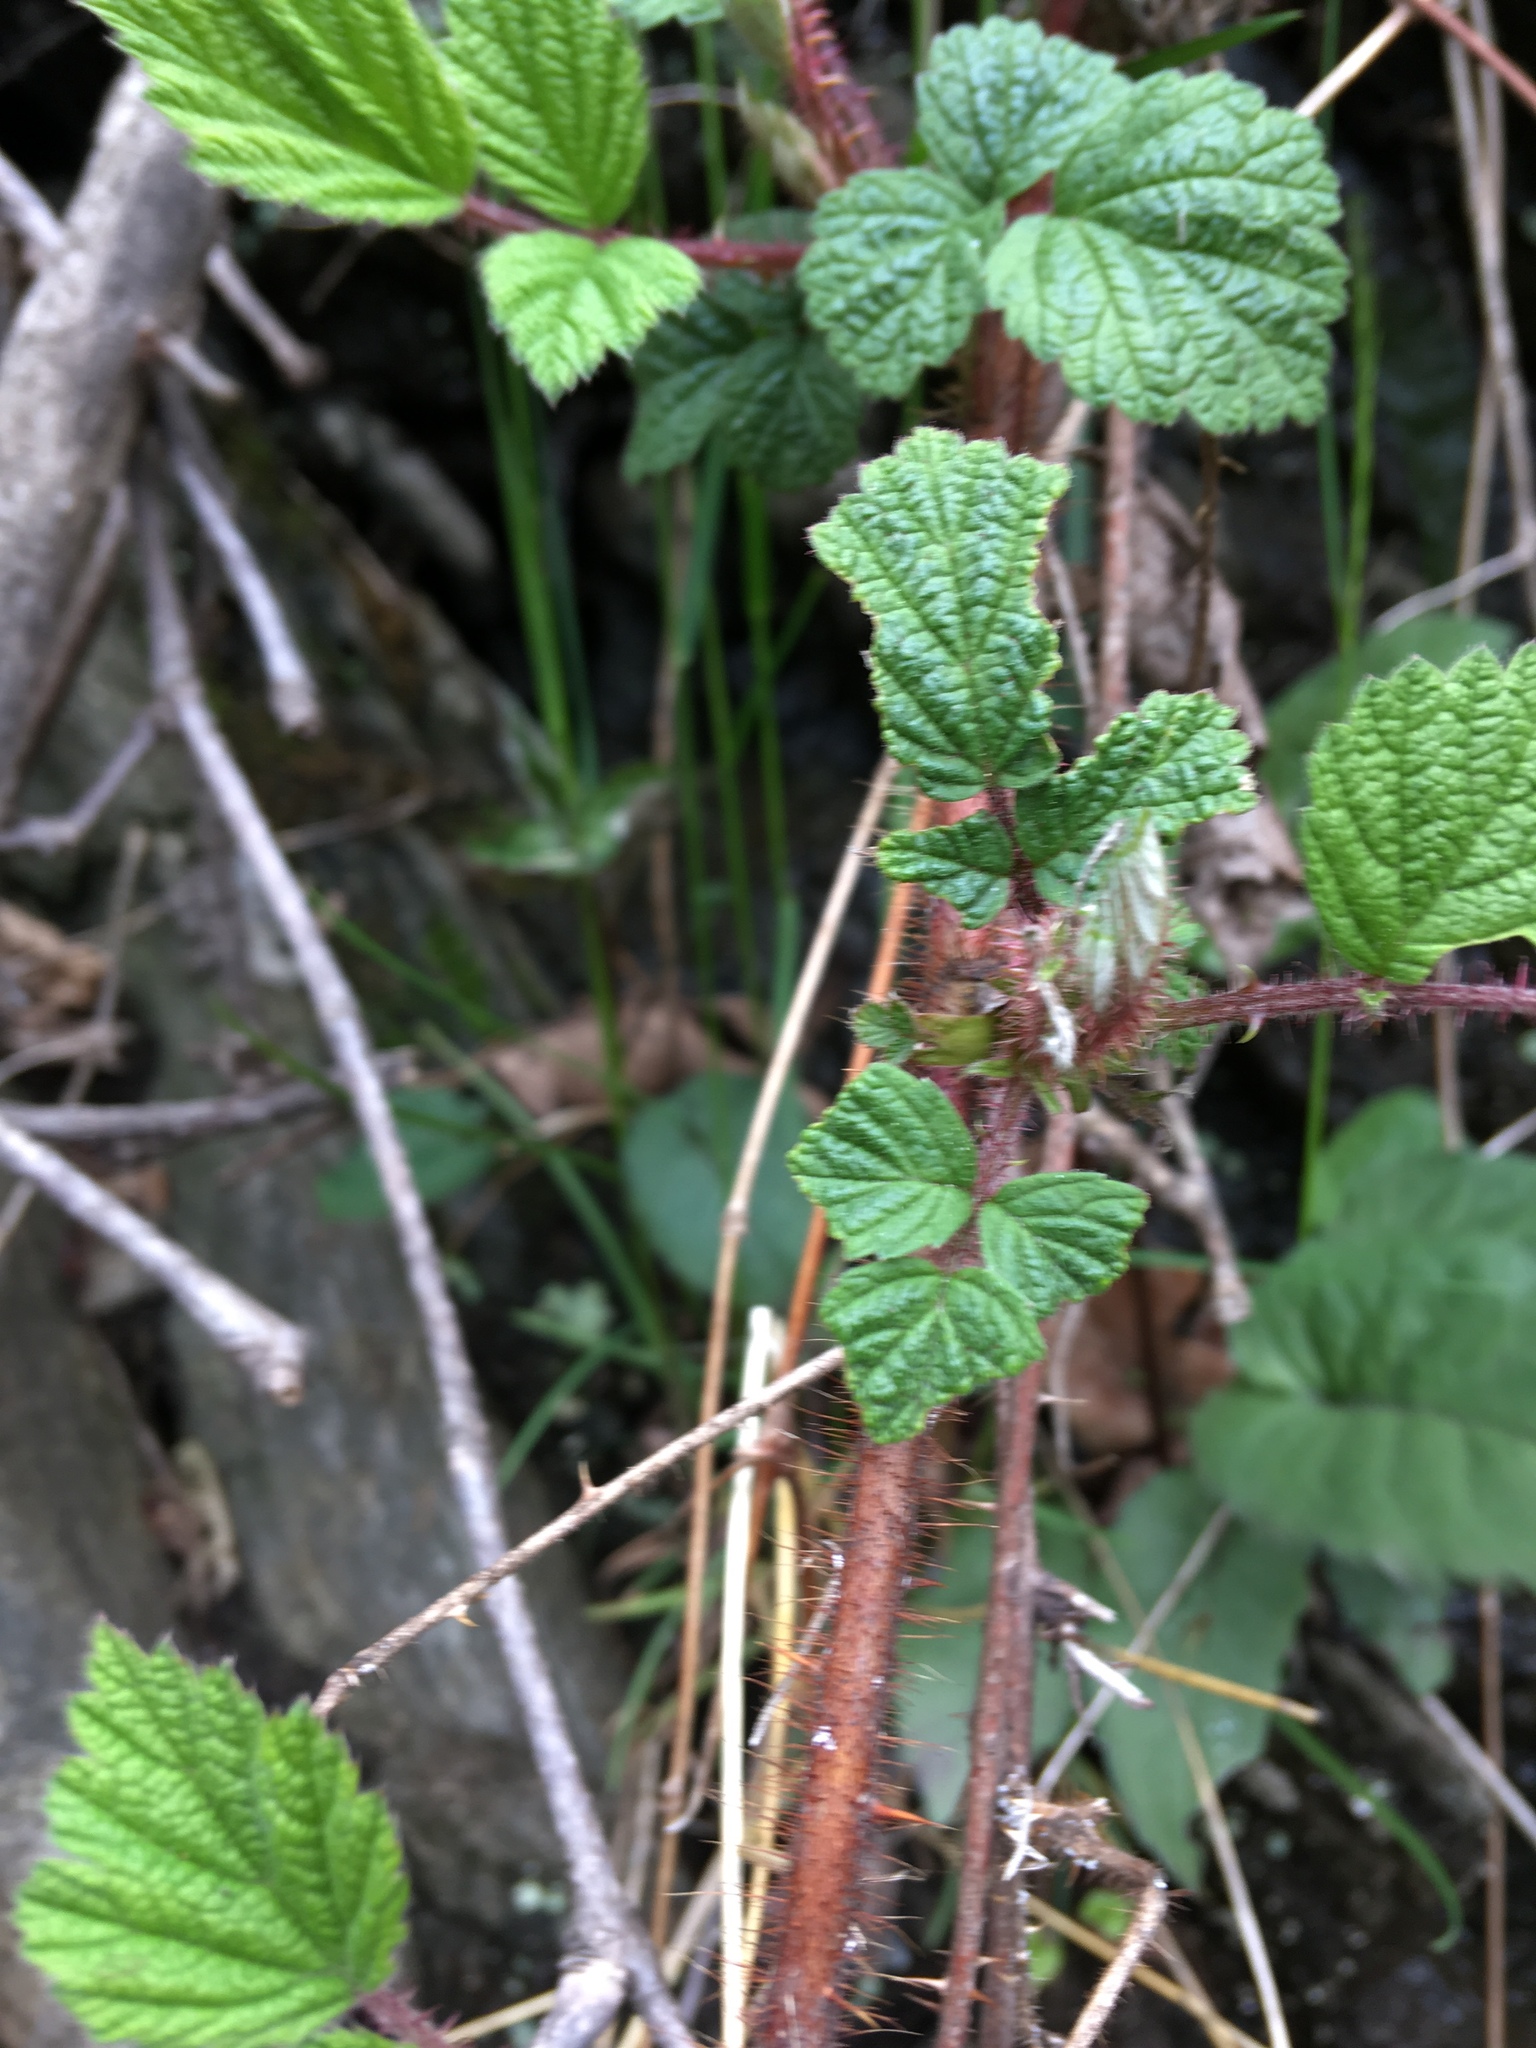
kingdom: Plantae
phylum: Tracheophyta
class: Magnoliopsida
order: Rosales
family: Rosaceae
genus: Rubus
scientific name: Rubus phoenicolasius
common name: Japanese wineberry
